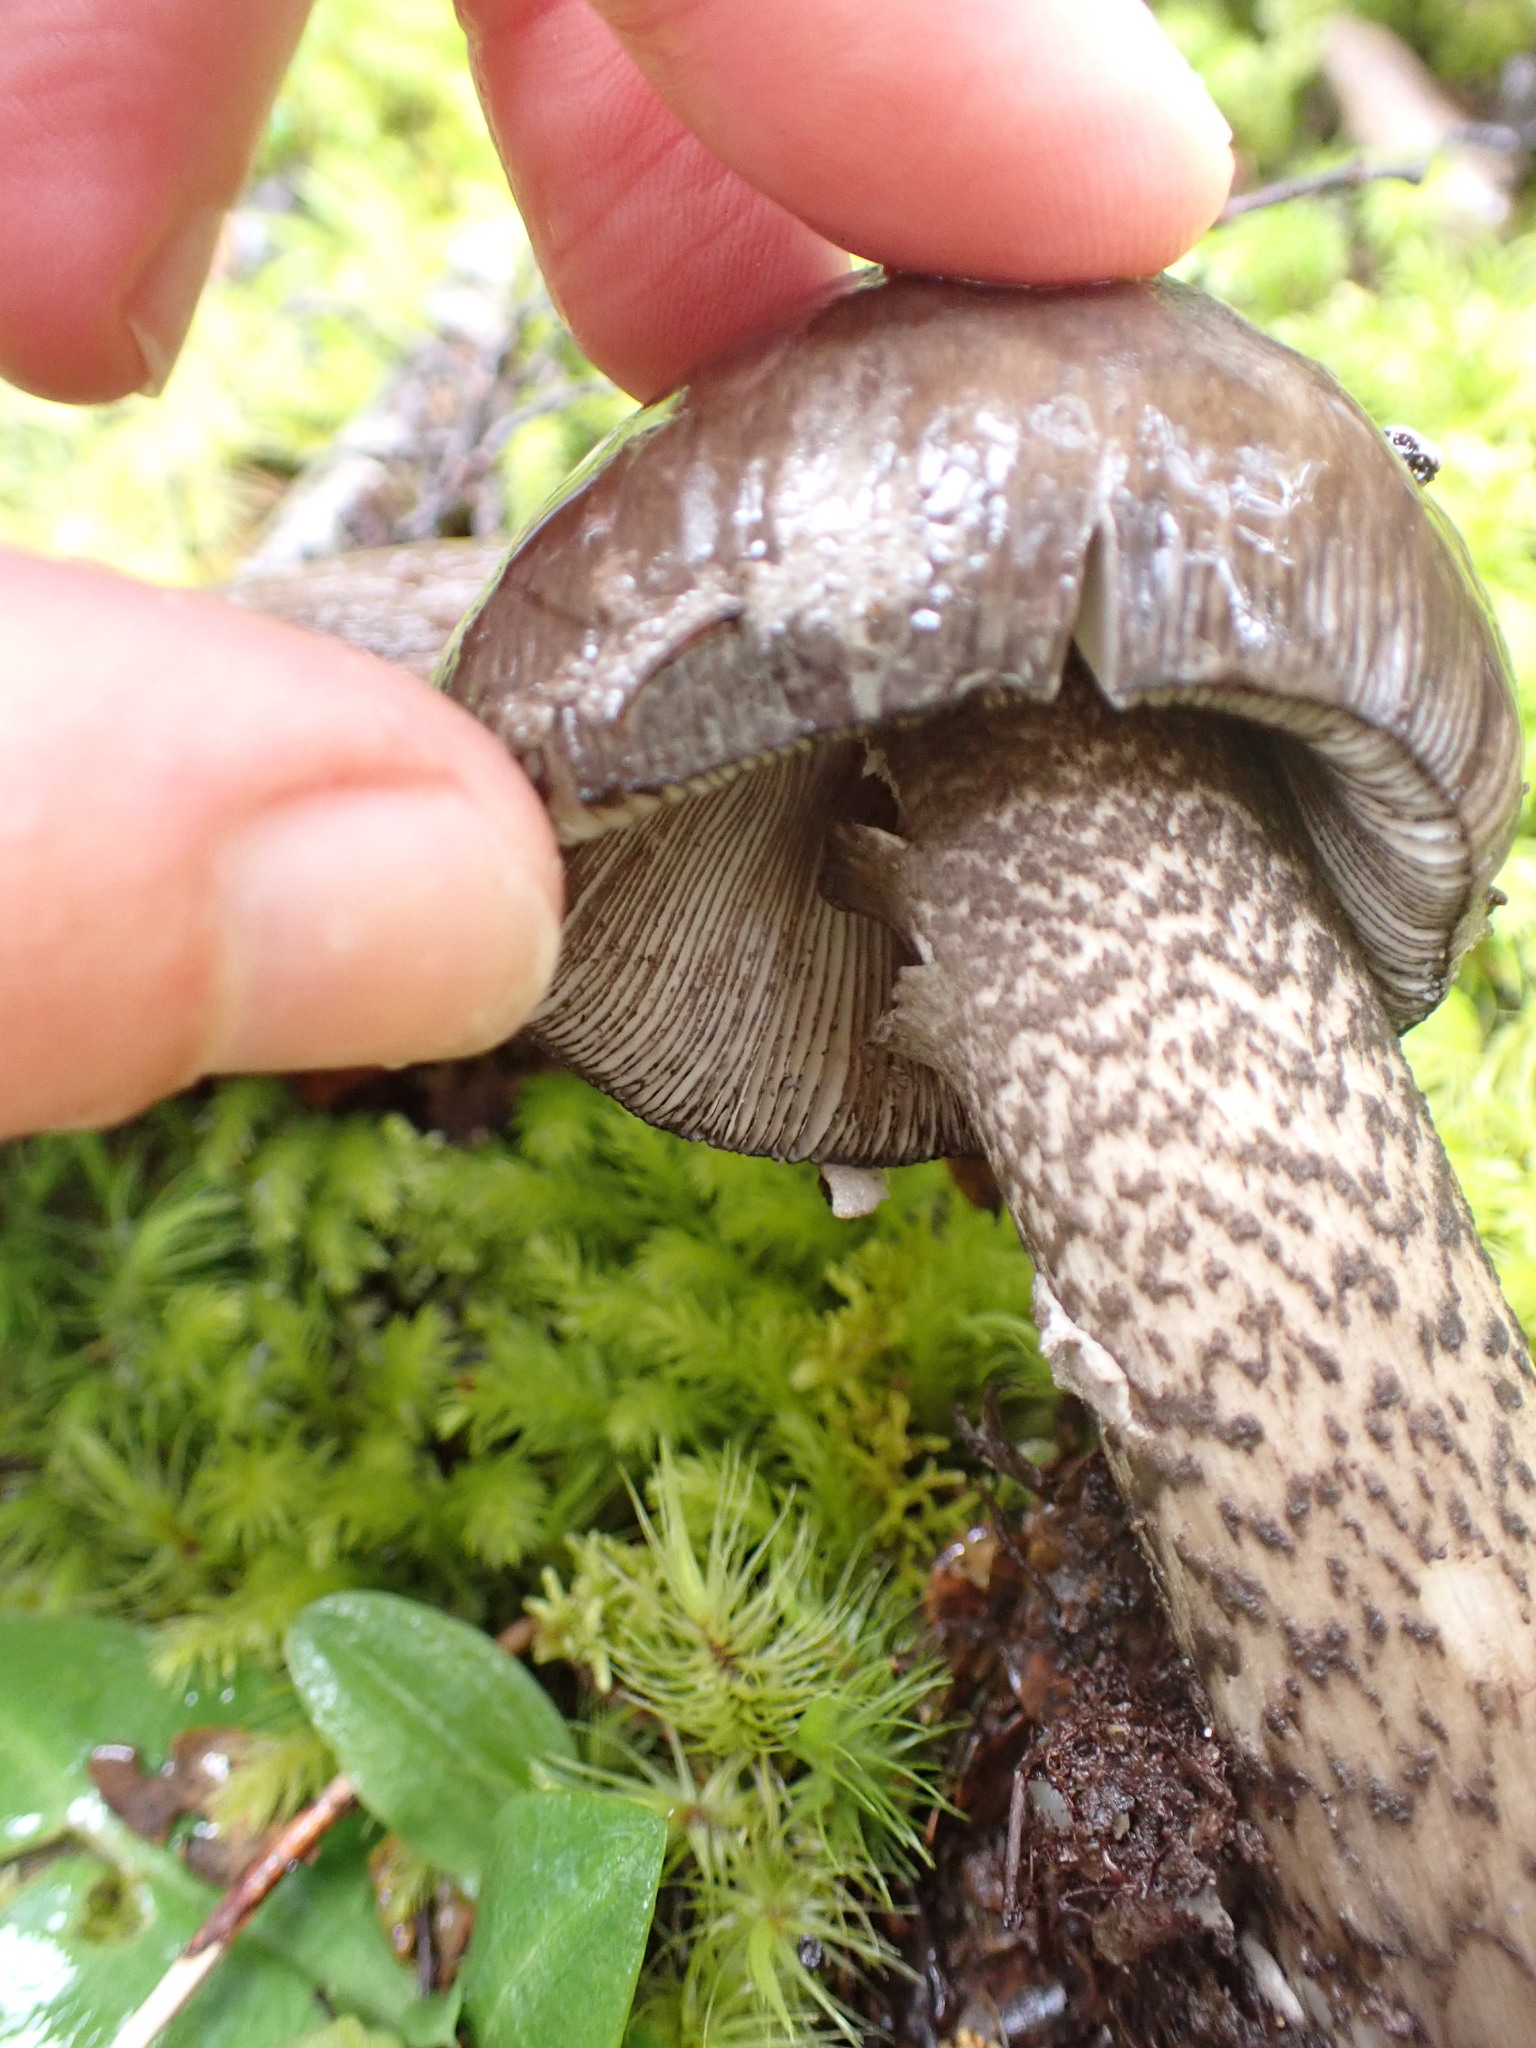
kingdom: Fungi
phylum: Basidiomycota
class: Agaricomycetes
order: Agaricales
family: Amanitaceae
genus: Amanita
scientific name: Amanita pekeoides
